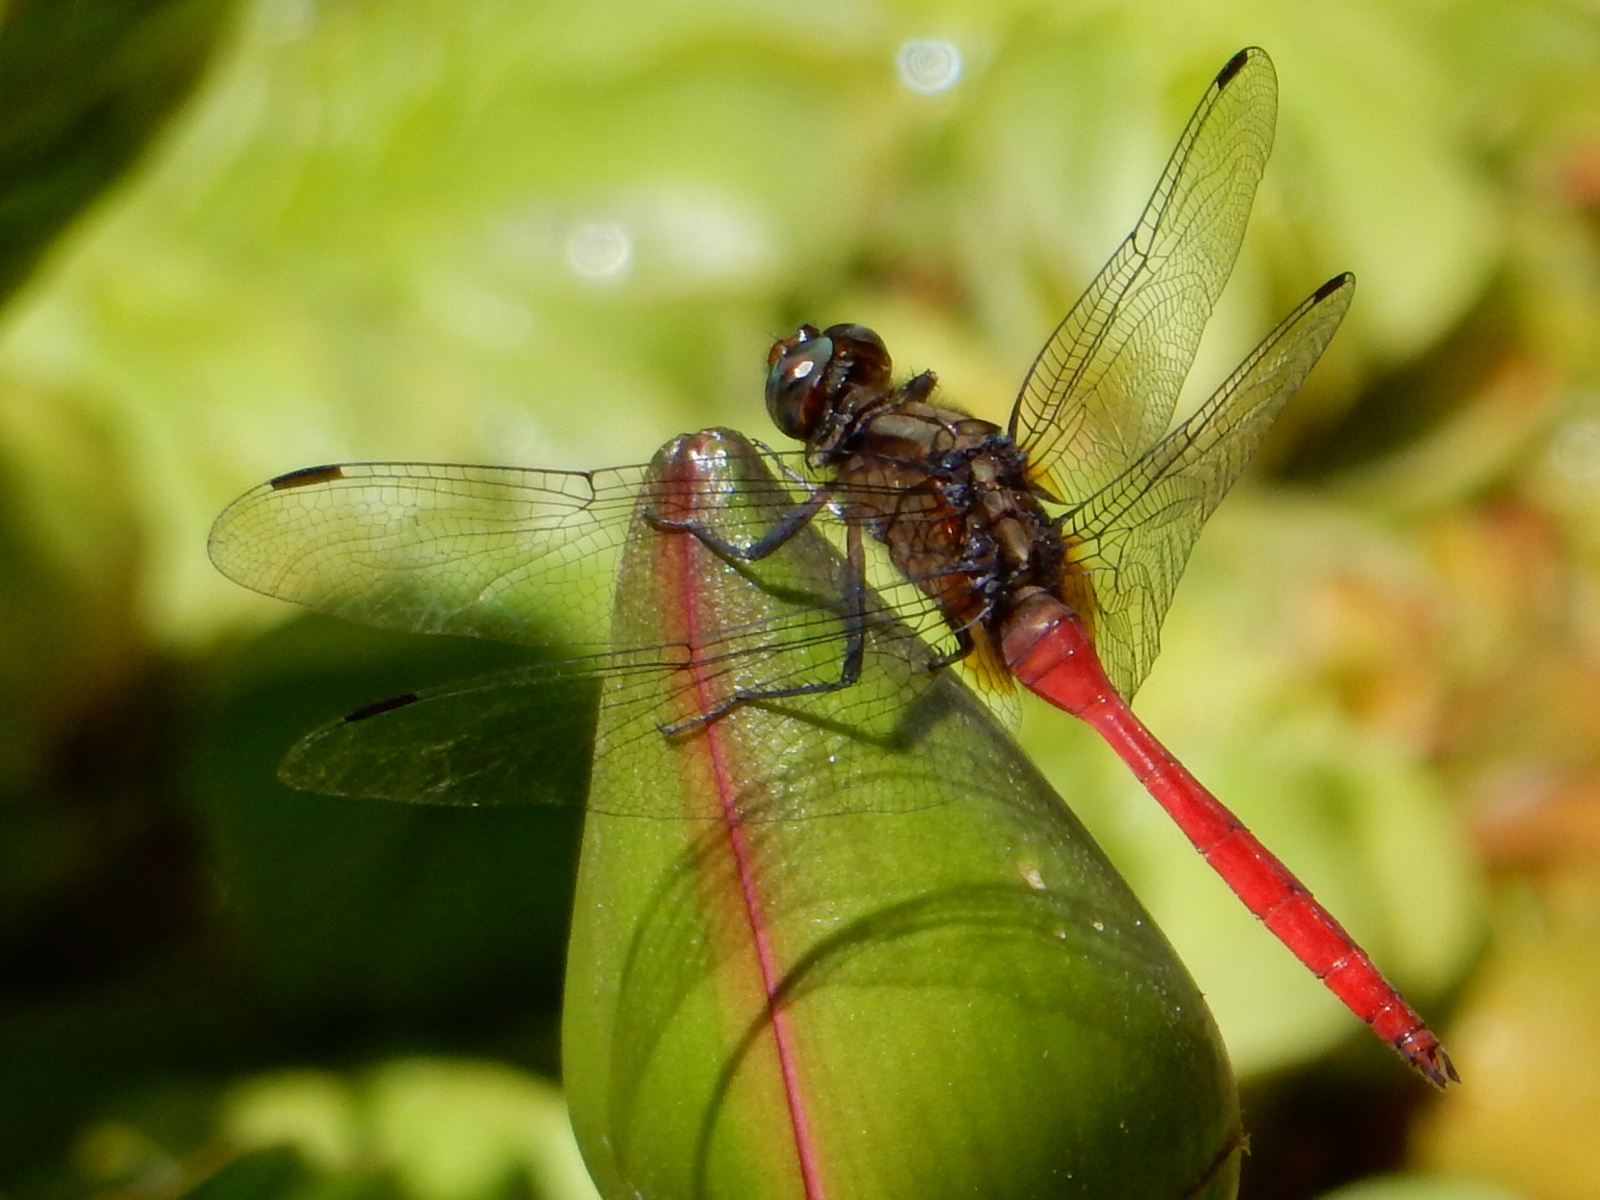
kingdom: Animalia
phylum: Arthropoda
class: Insecta
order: Odonata
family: Libellulidae
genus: Orthetrum
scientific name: Orthetrum villosovittatum
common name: Firery skimmer
